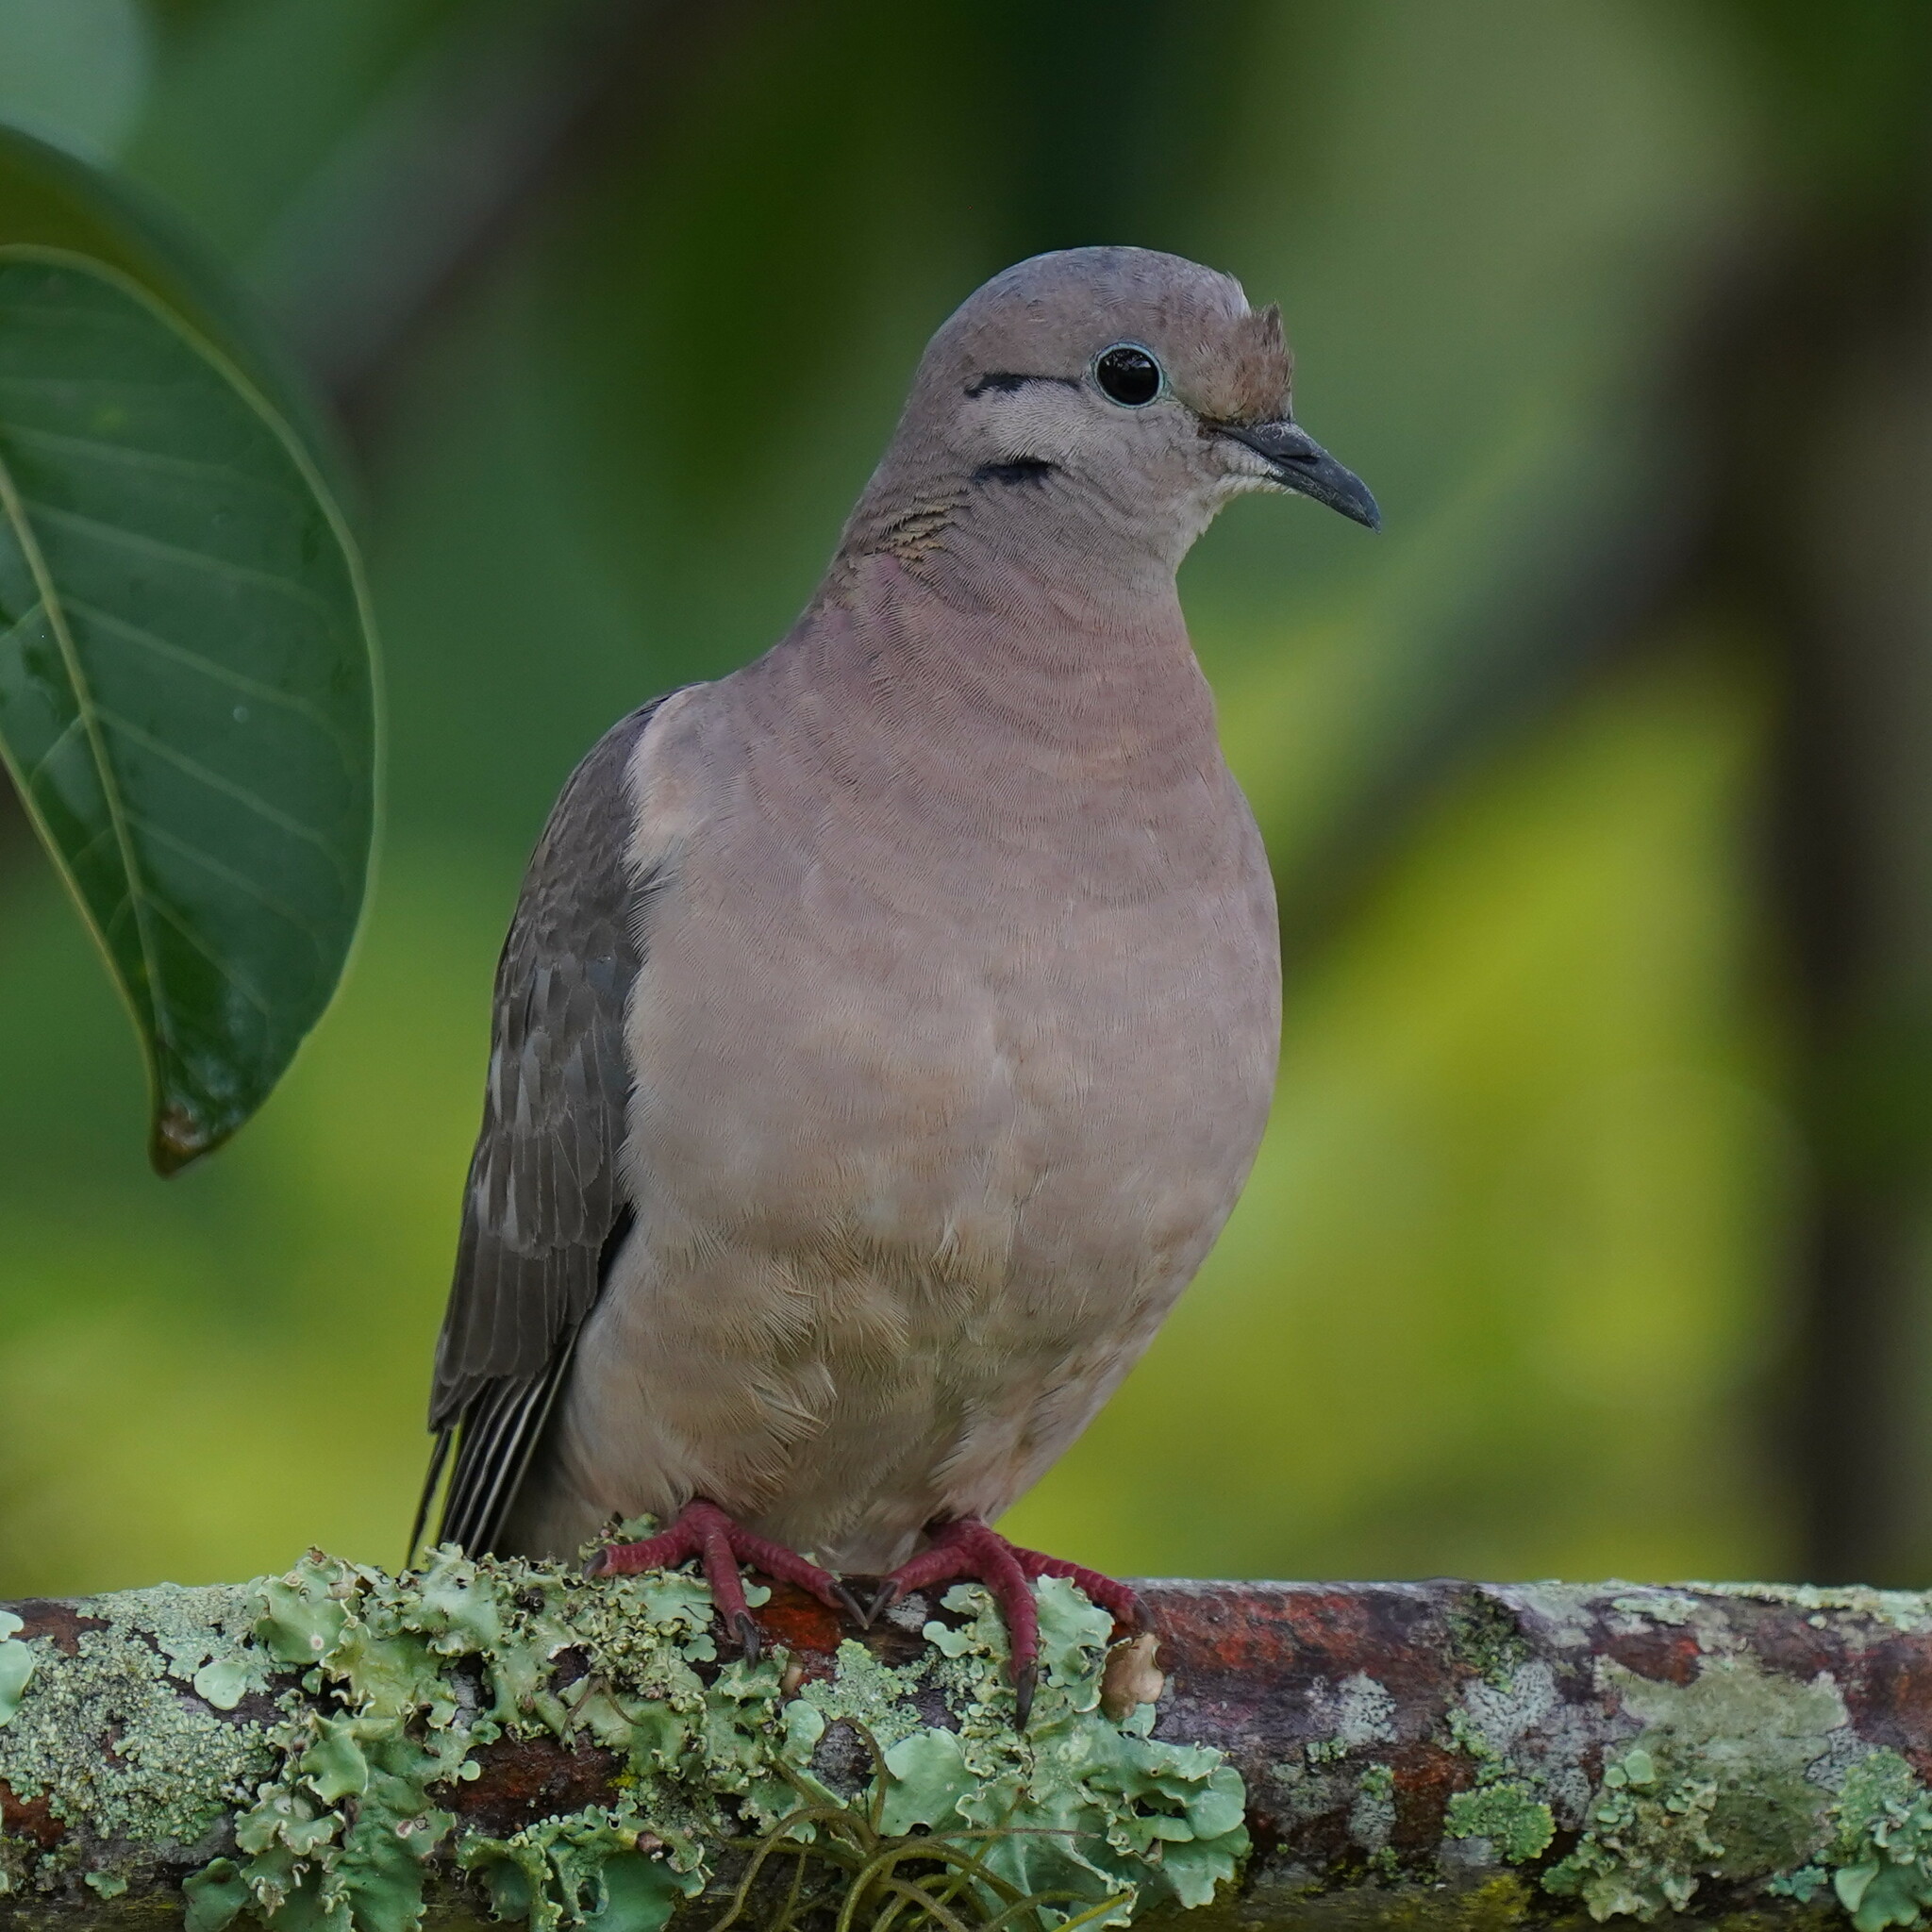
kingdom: Animalia
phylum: Chordata
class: Aves
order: Columbiformes
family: Columbidae
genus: Zenaida
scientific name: Zenaida auriculata
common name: Eared dove
